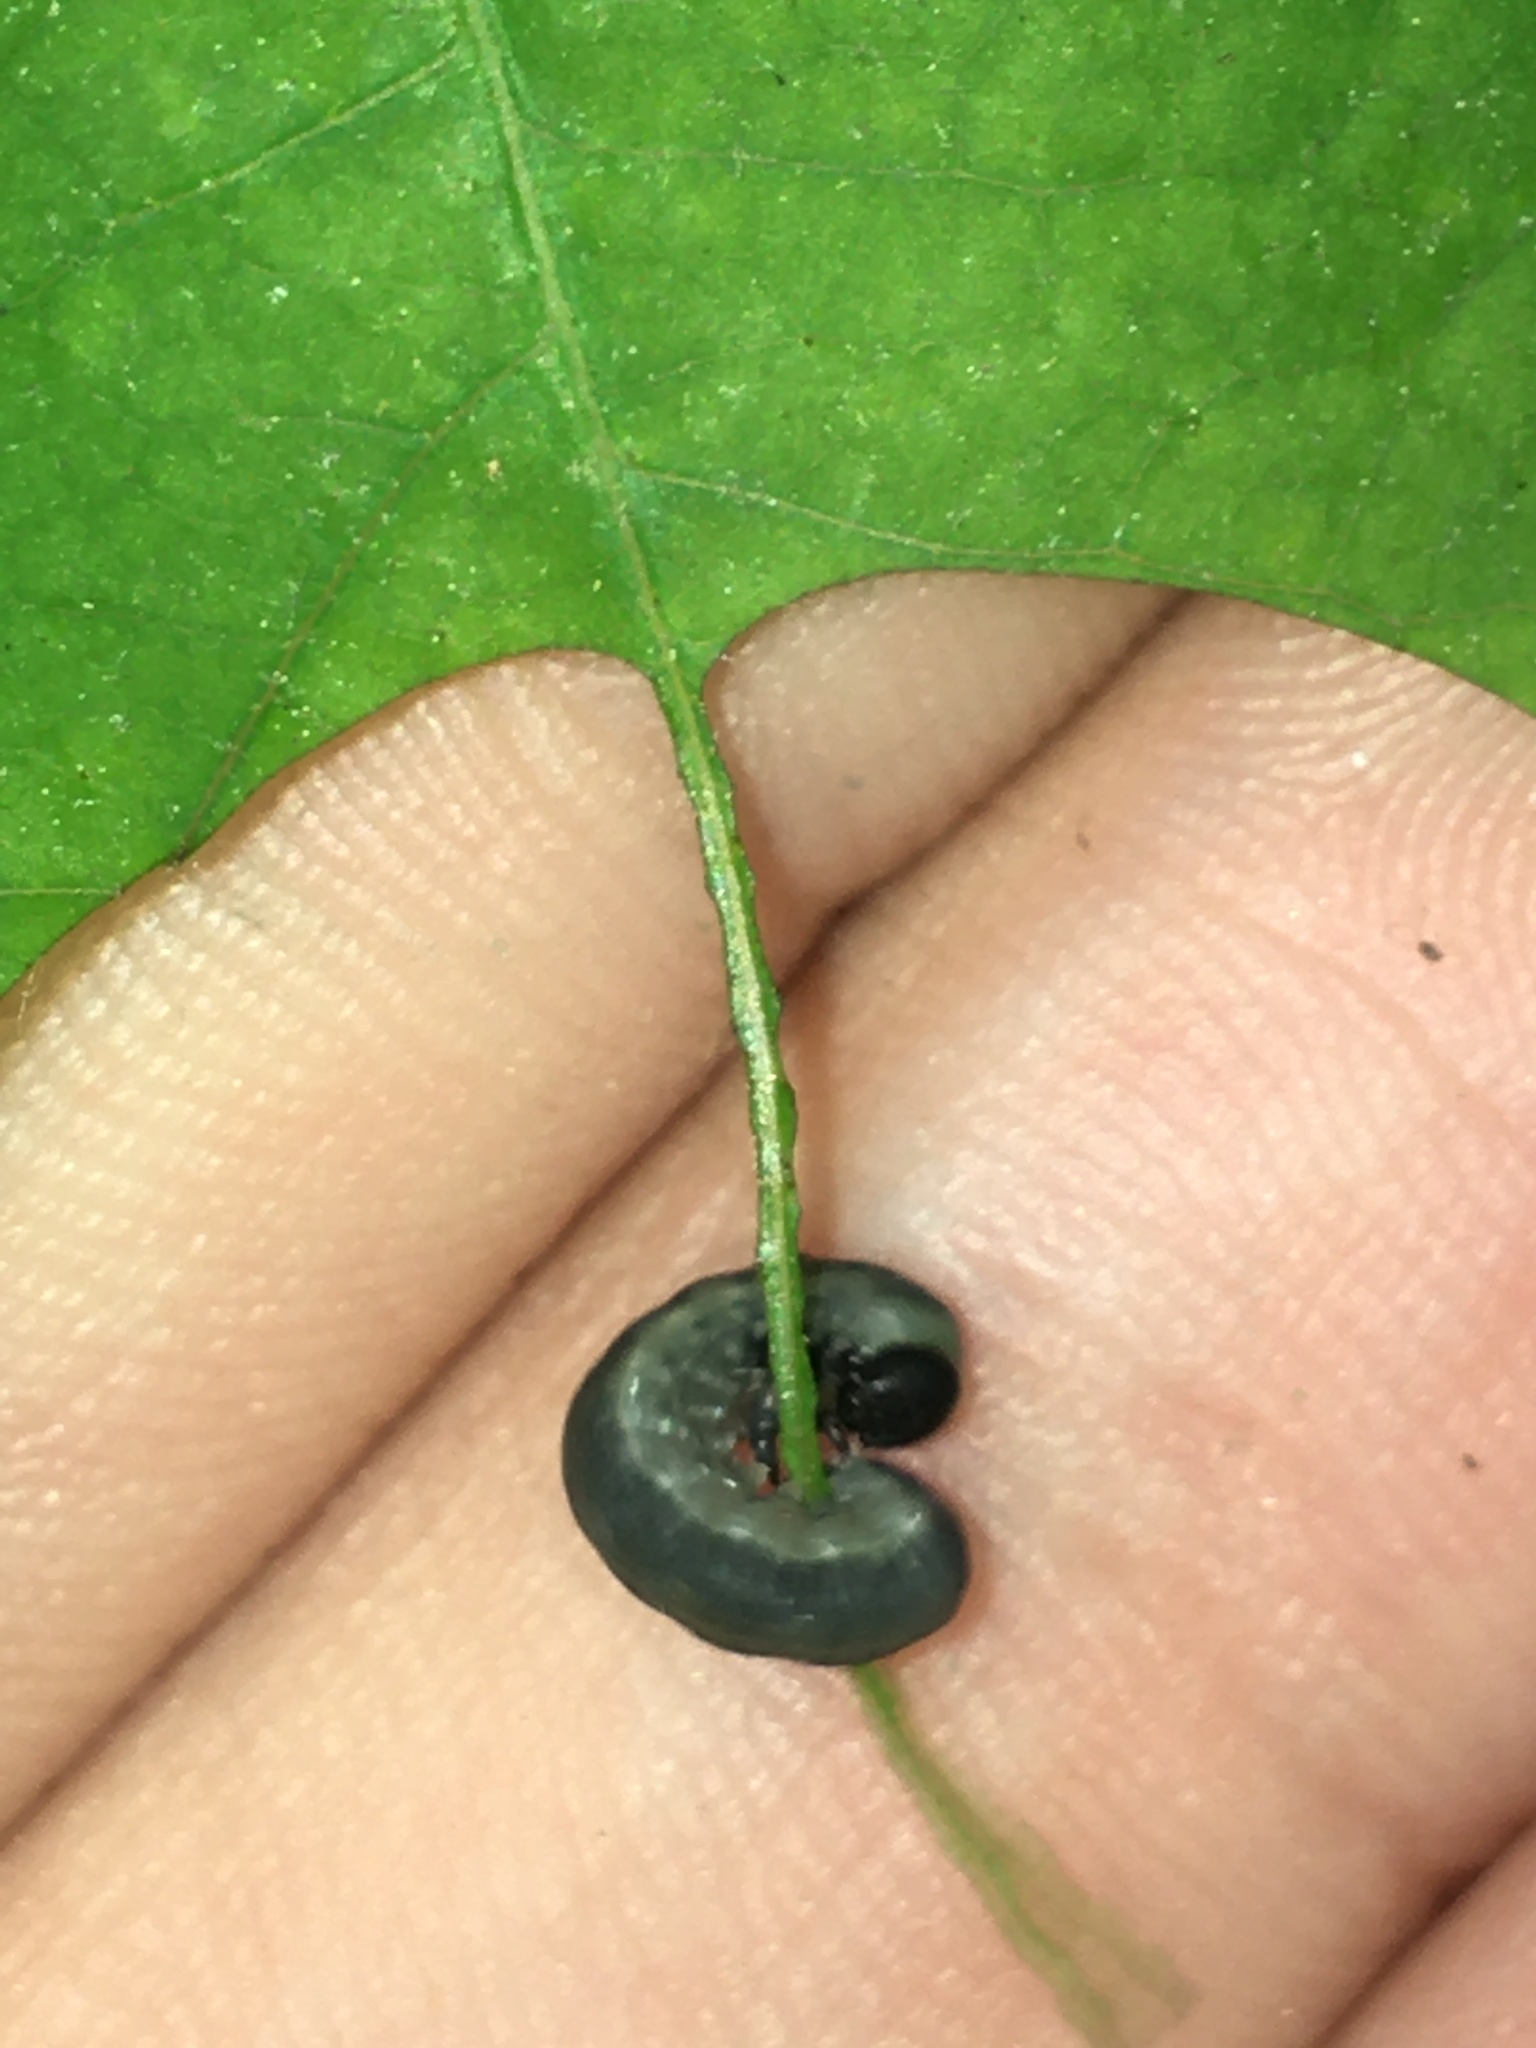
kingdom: Animalia
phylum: Arthropoda
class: Insecta
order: Hymenoptera
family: Tenthredinidae
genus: Craterocercus
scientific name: Craterocercus
